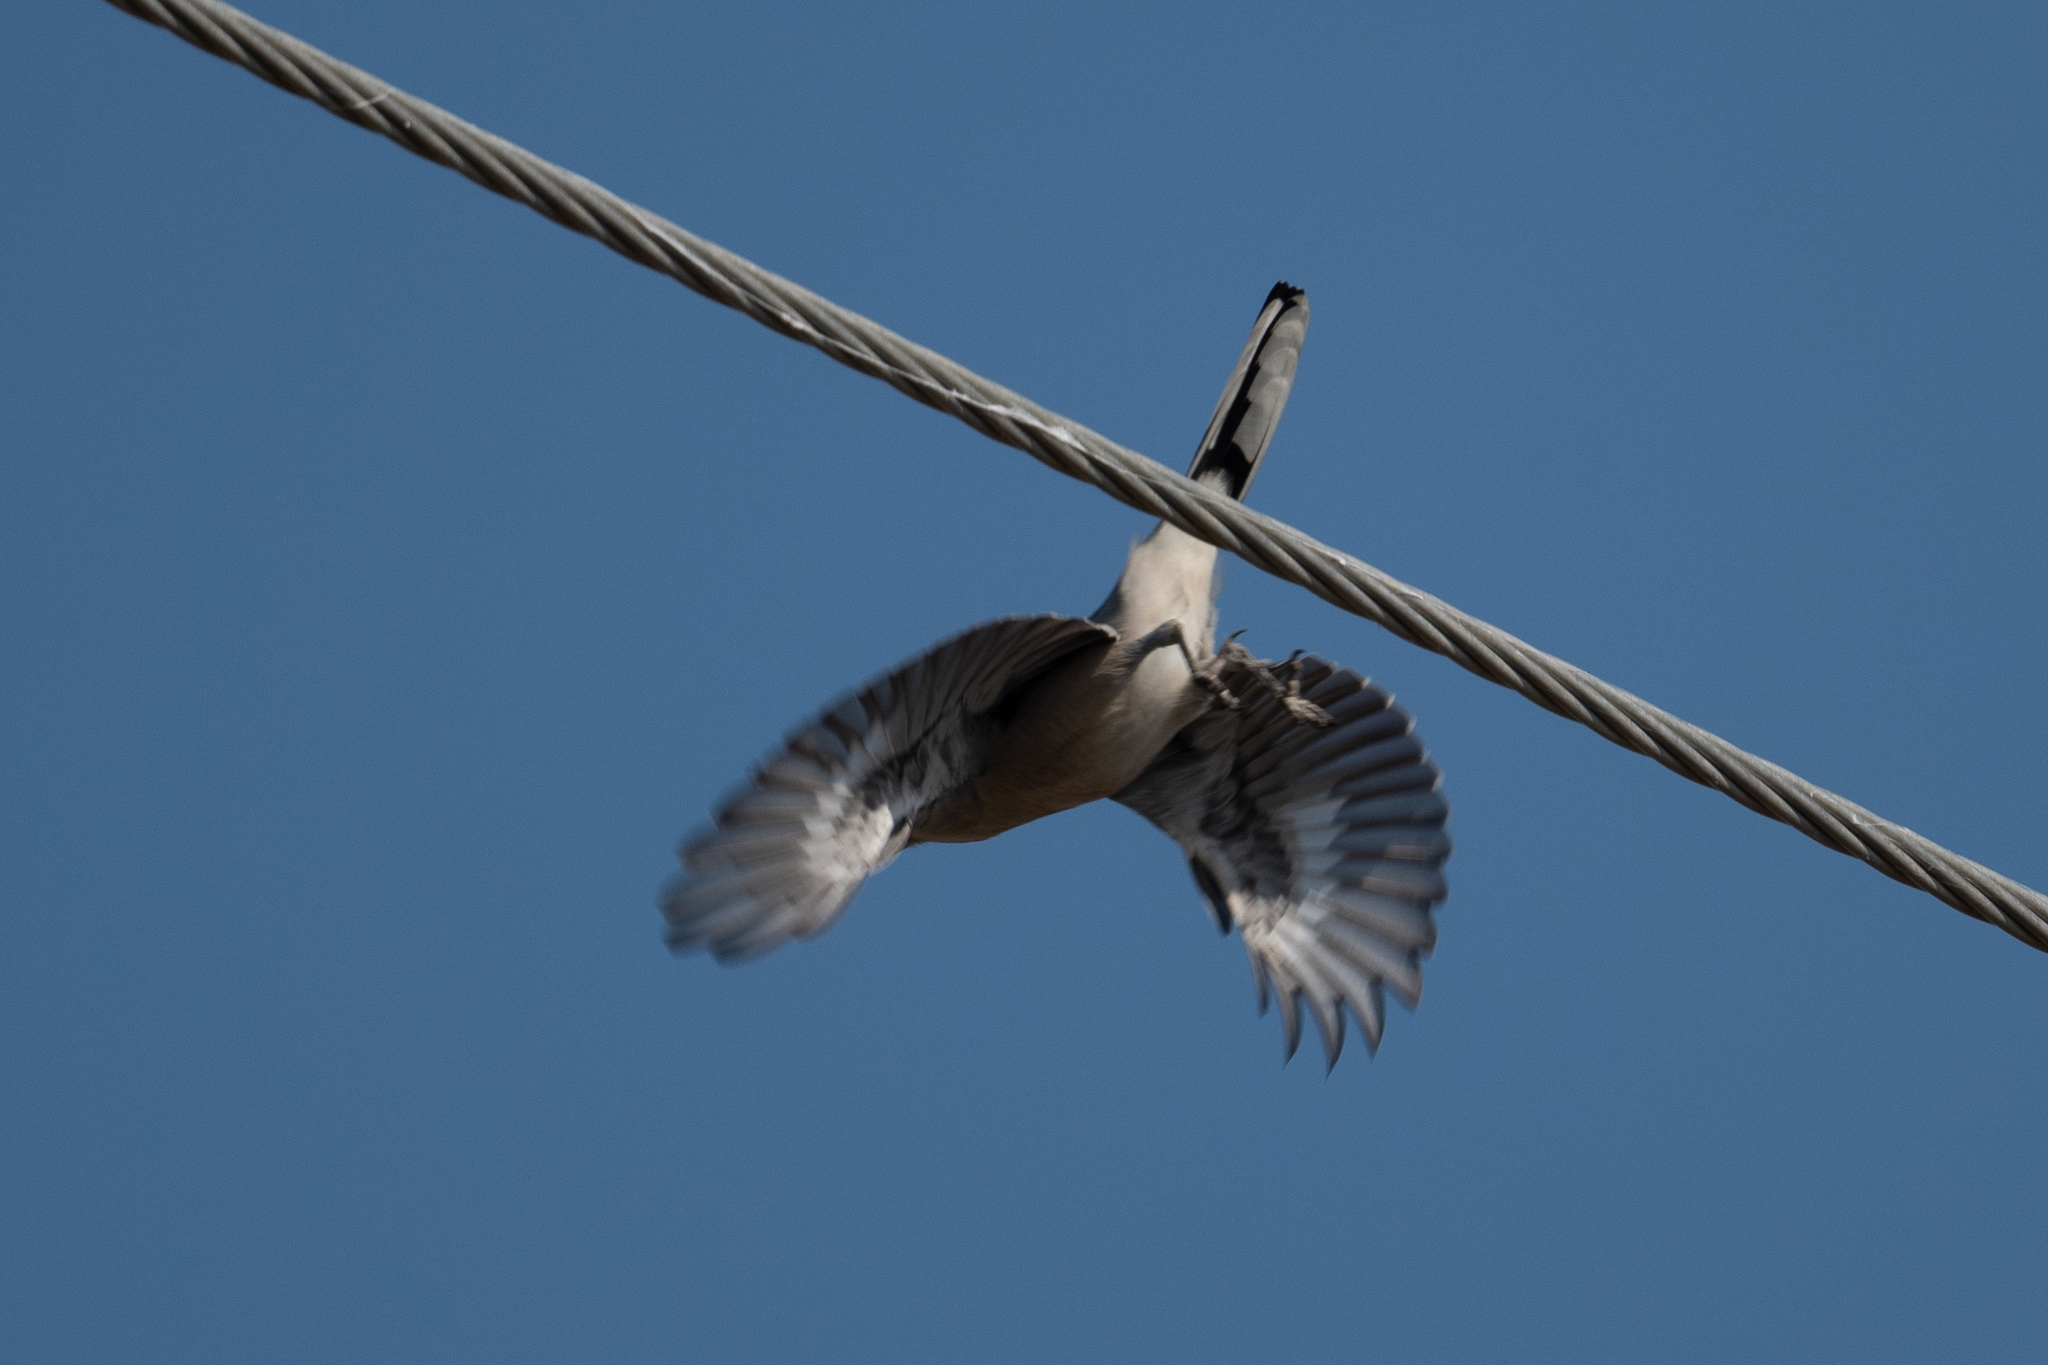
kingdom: Animalia
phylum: Chordata
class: Aves
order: Passeriformes
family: Laniidae
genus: Lanius
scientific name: Lanius ludovicianus
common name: Loggerhead shrike
